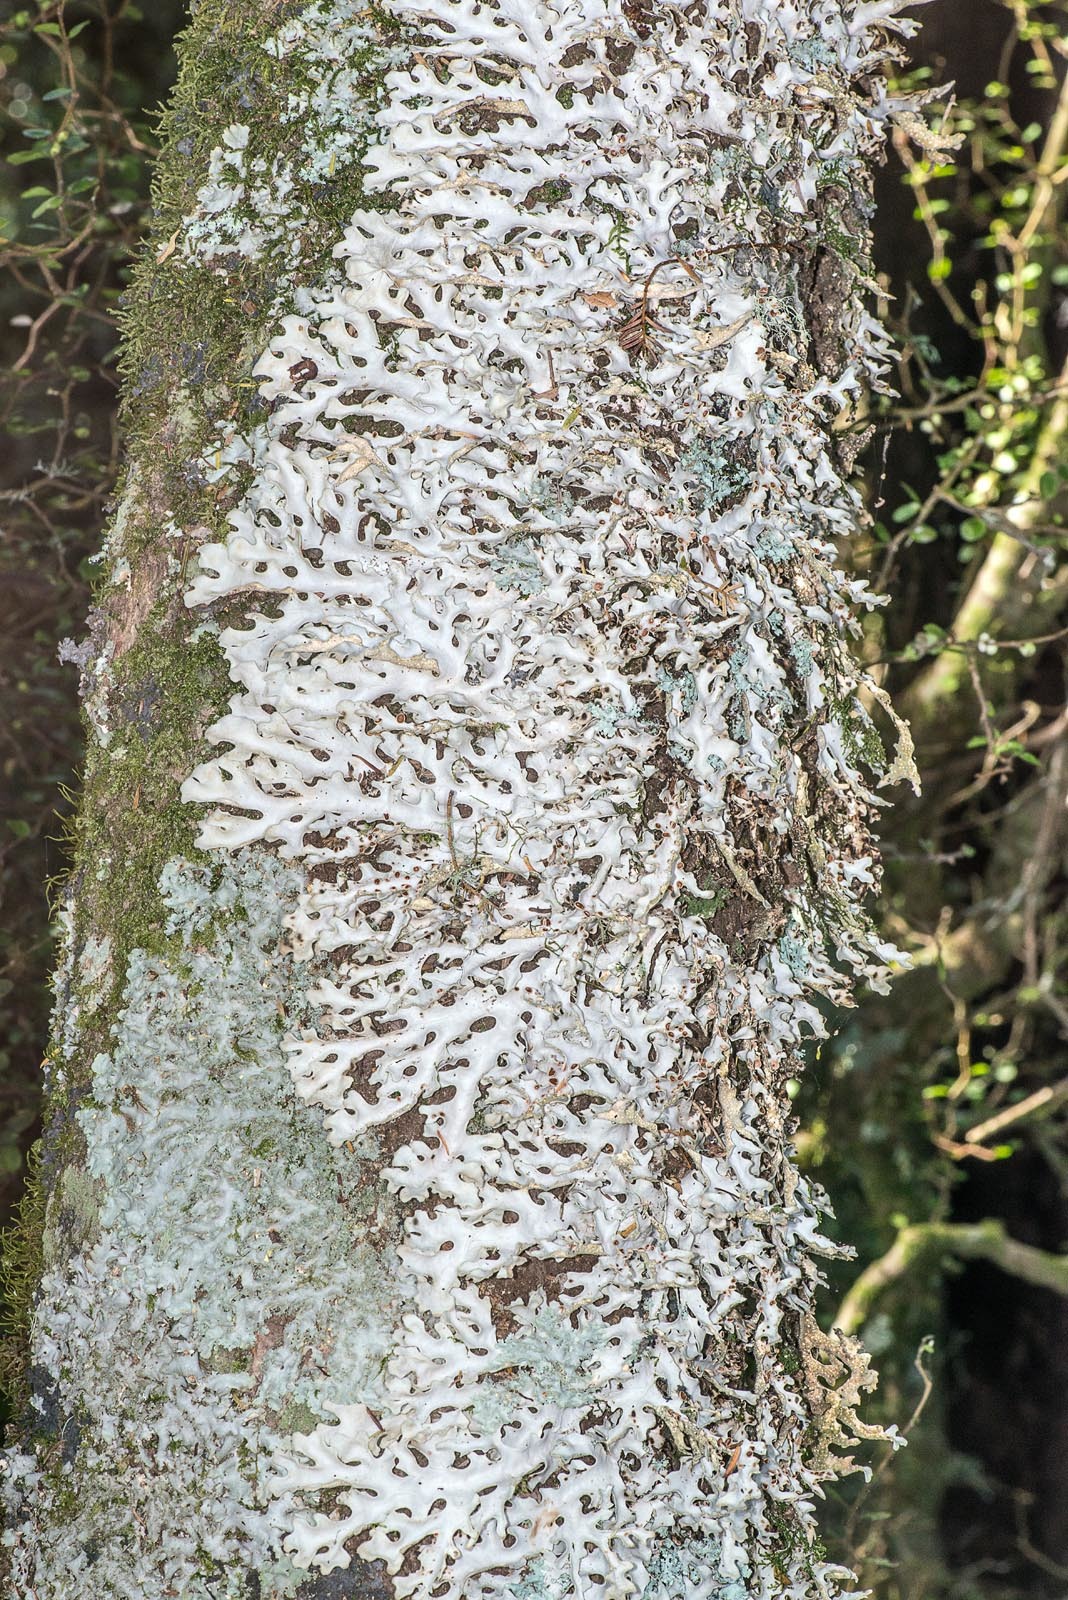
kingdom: Fungi
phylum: Ascomycota
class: Lecanoromycetes
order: Peltigerales
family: Lobariaceae
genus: Pseudocyphellaria
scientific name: Pseudocyphellaria coriacea
